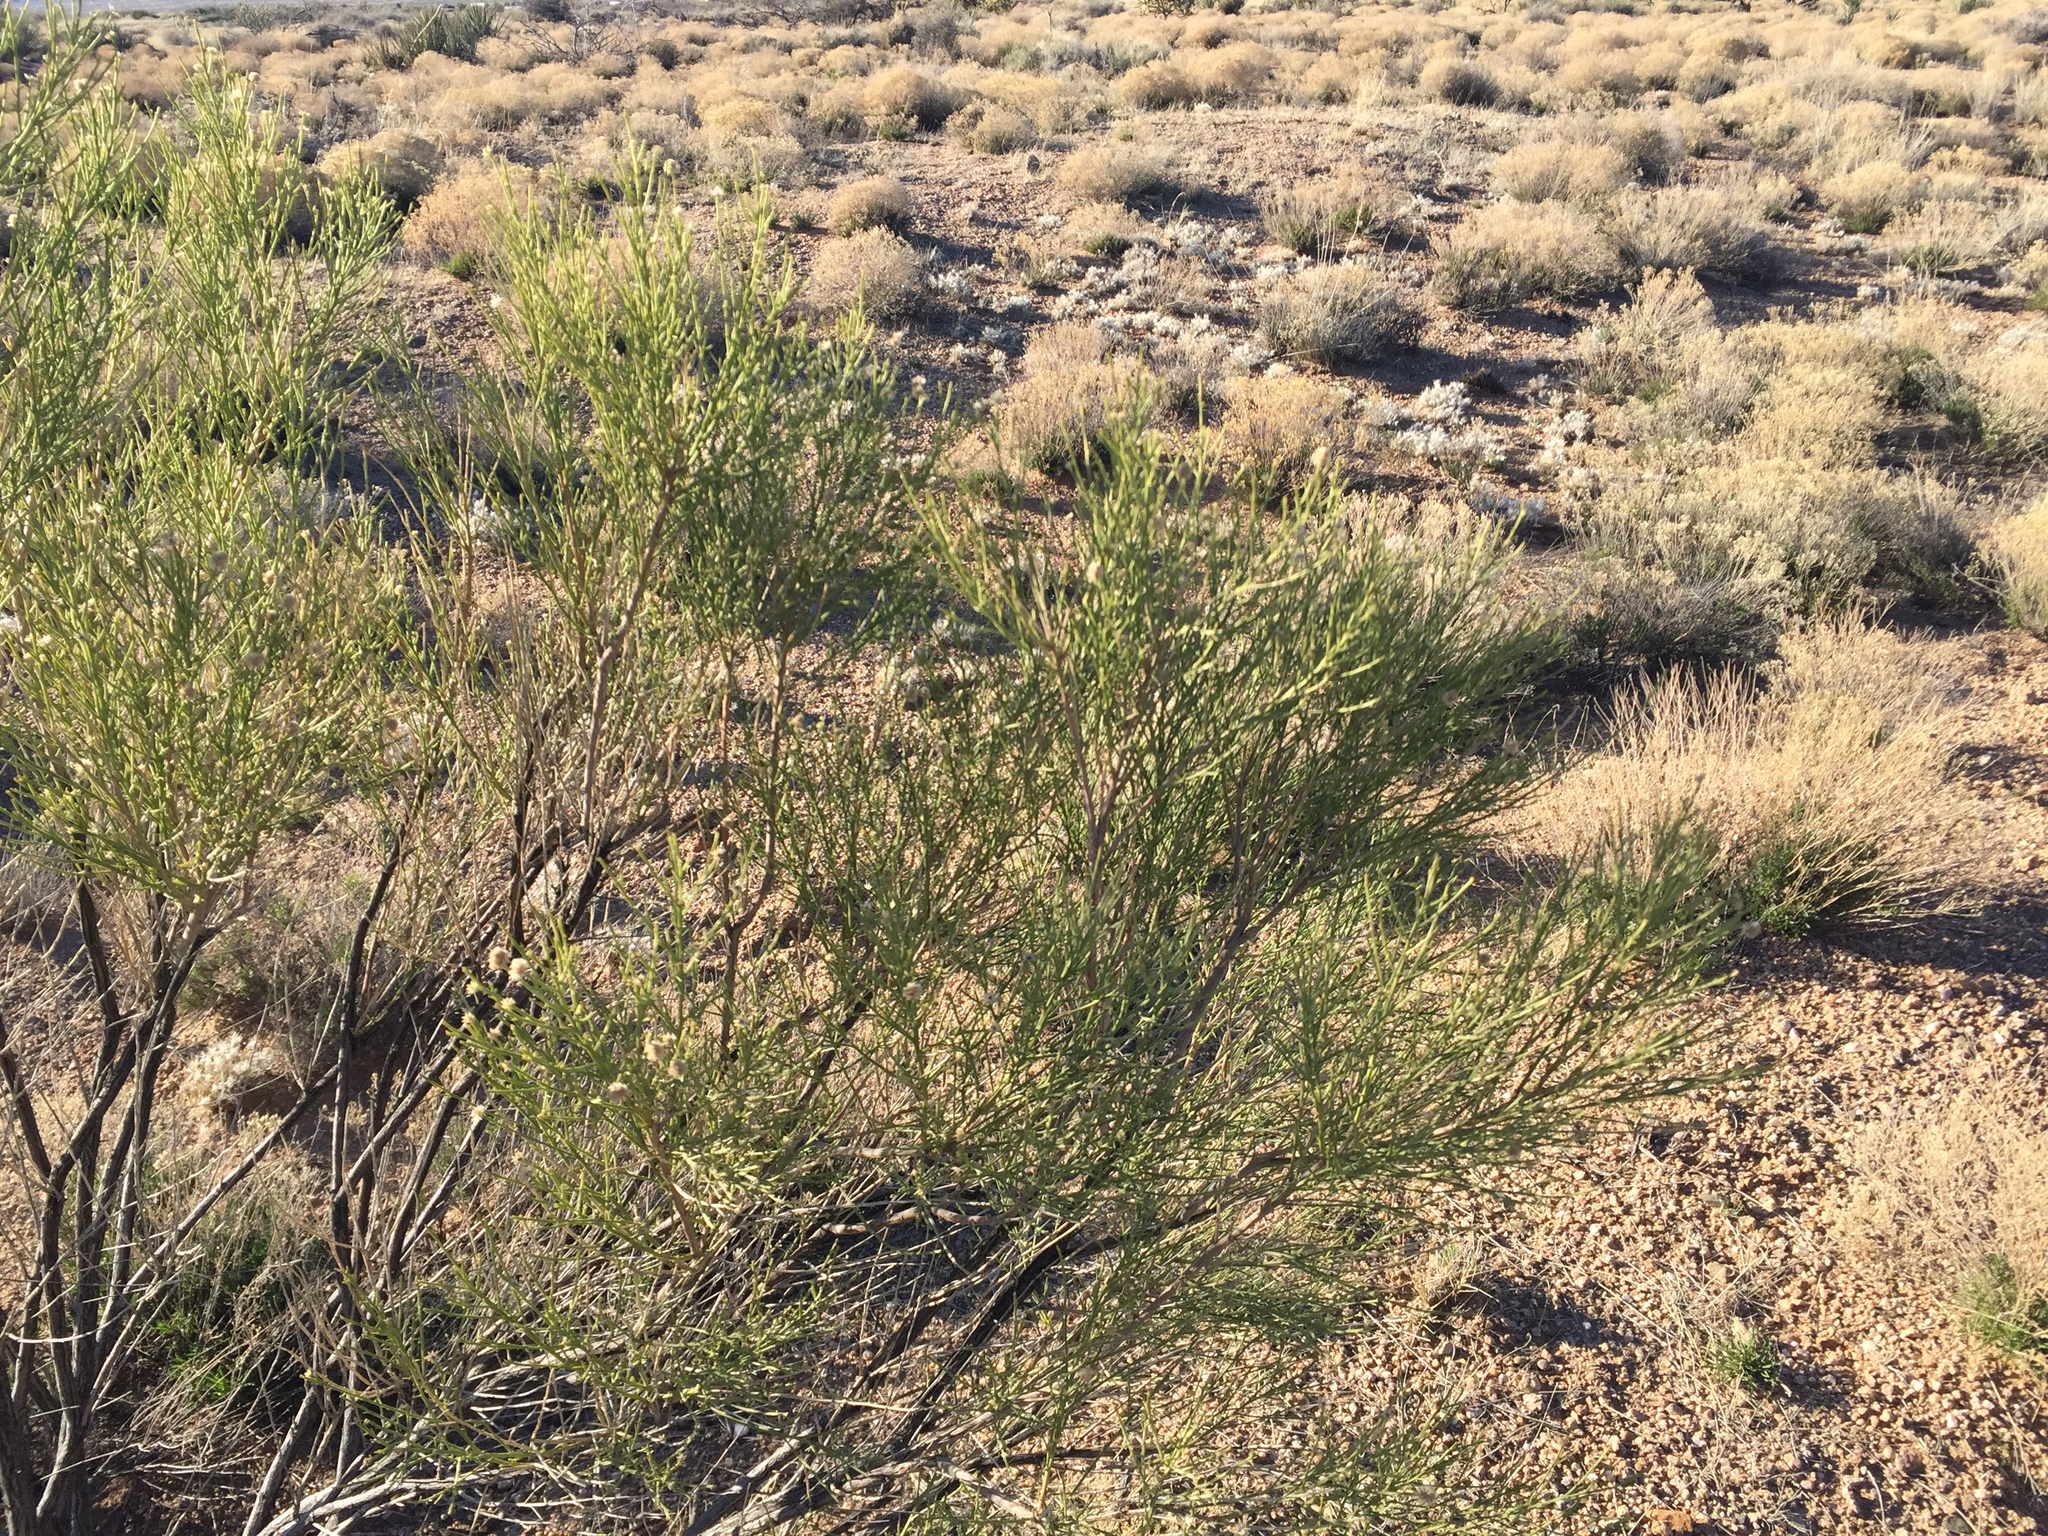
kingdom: Plantae
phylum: Tracheophyta
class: Magnoliopsida
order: Asterales
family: Asteraceae
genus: Baccharis
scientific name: Baccharis sarothroides
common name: Desert-broom
